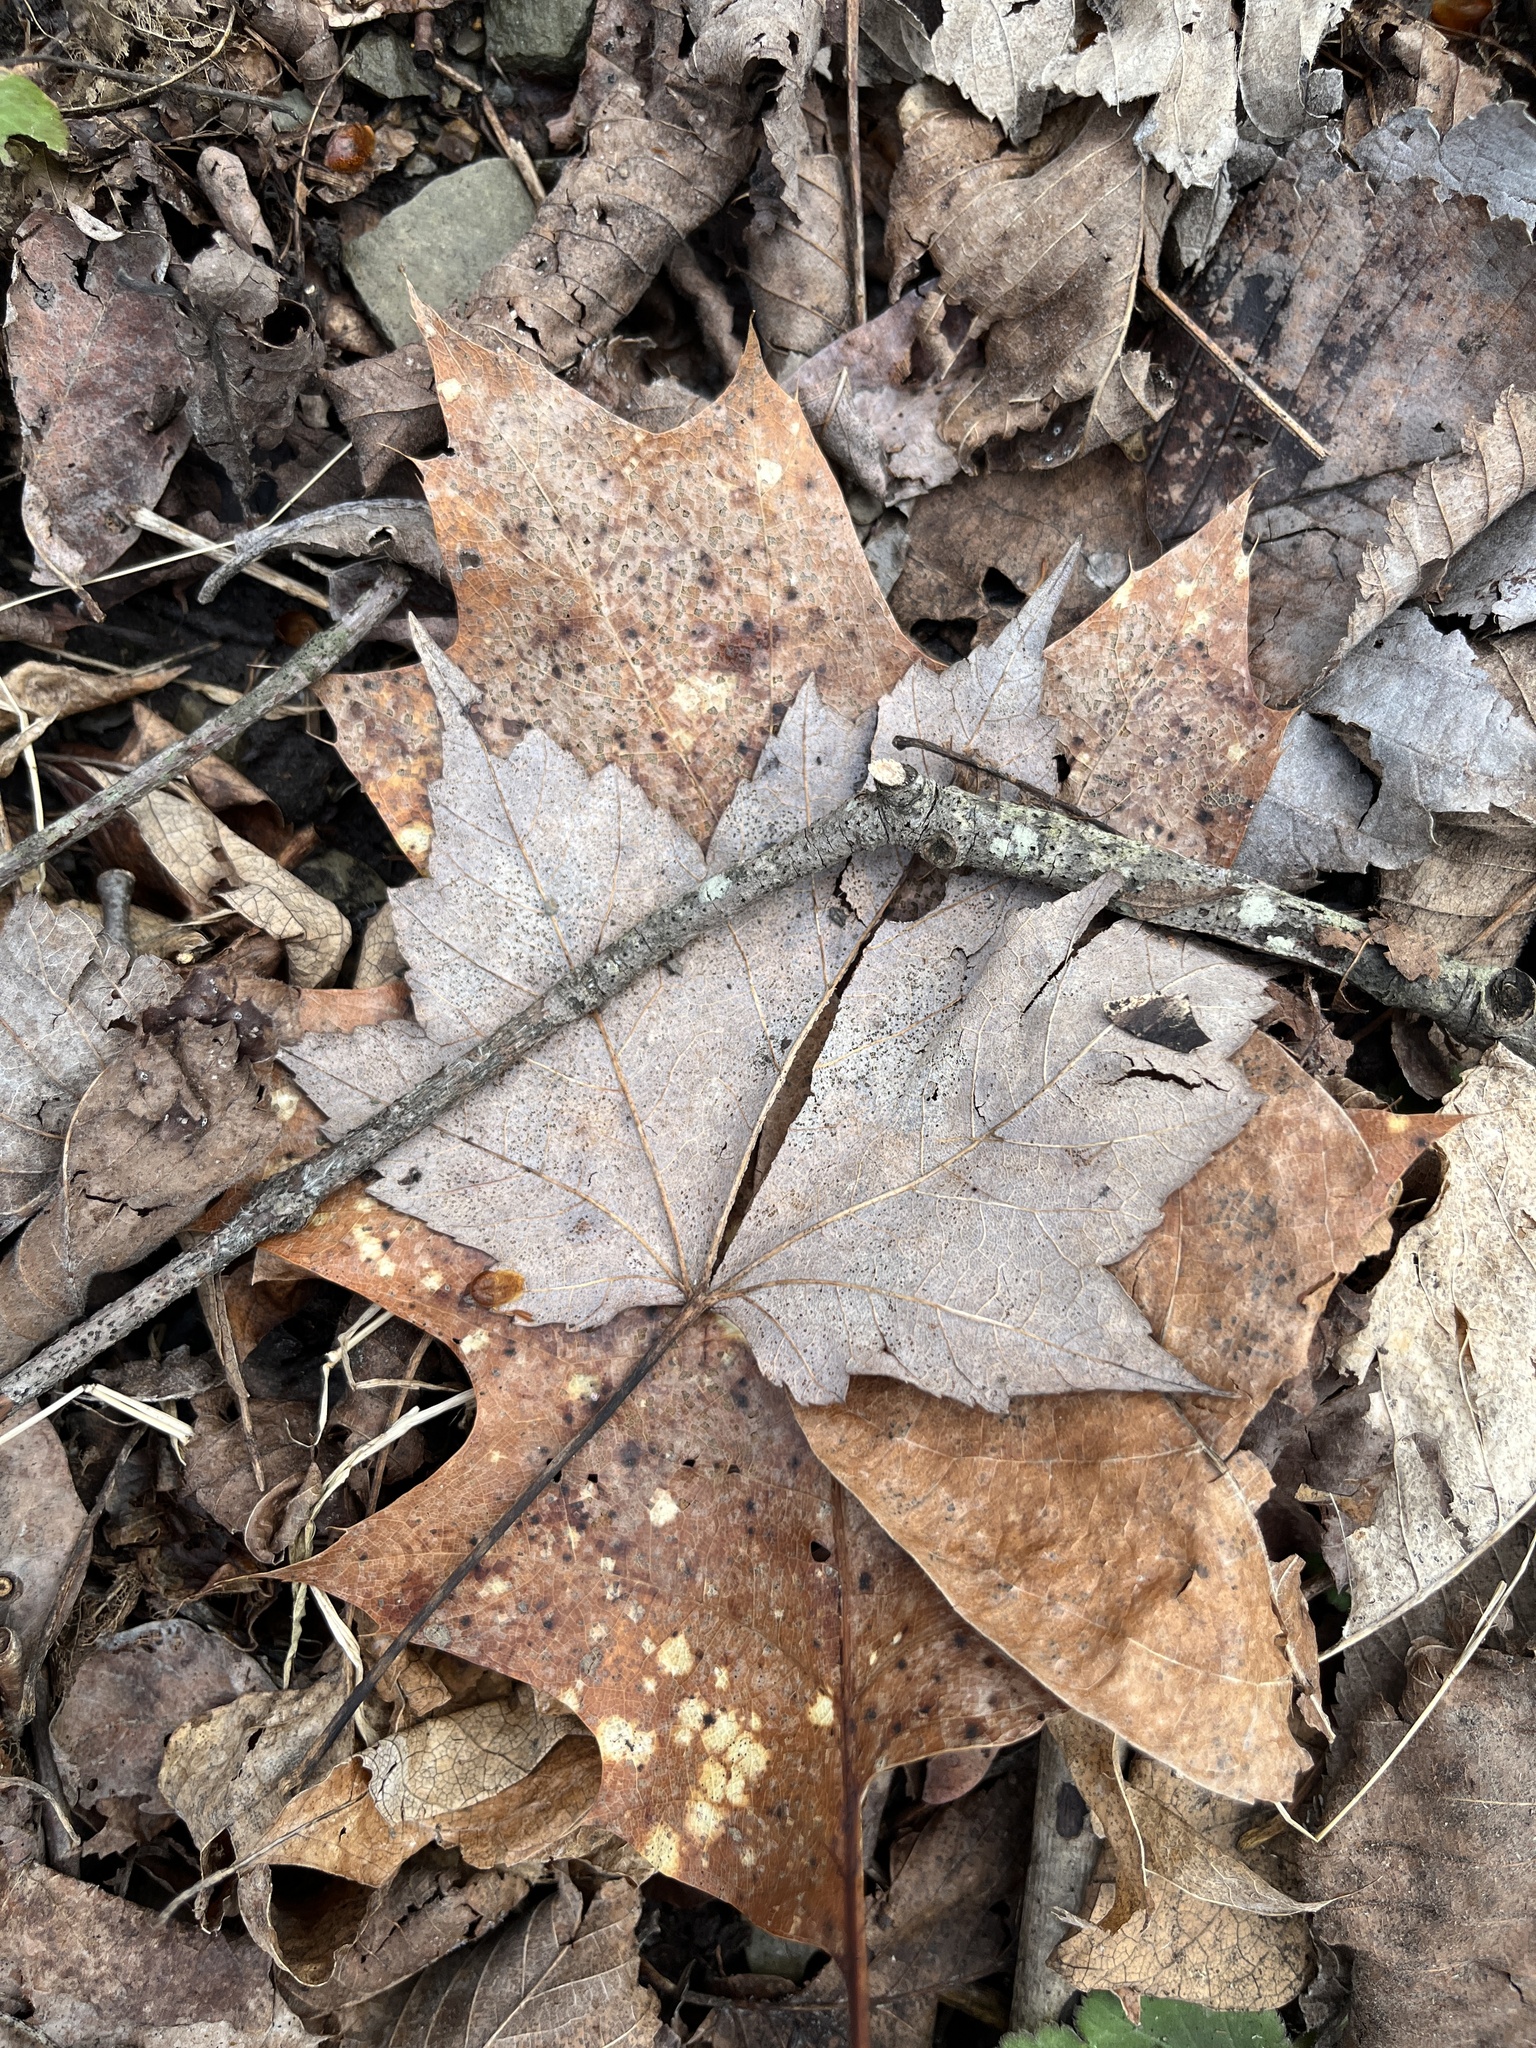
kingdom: Plantae
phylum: Tracheophyta
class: Magnoliopsida
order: Sapindales
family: Sapindaceae
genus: Acer
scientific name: Acer rubrum
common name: Red maple
